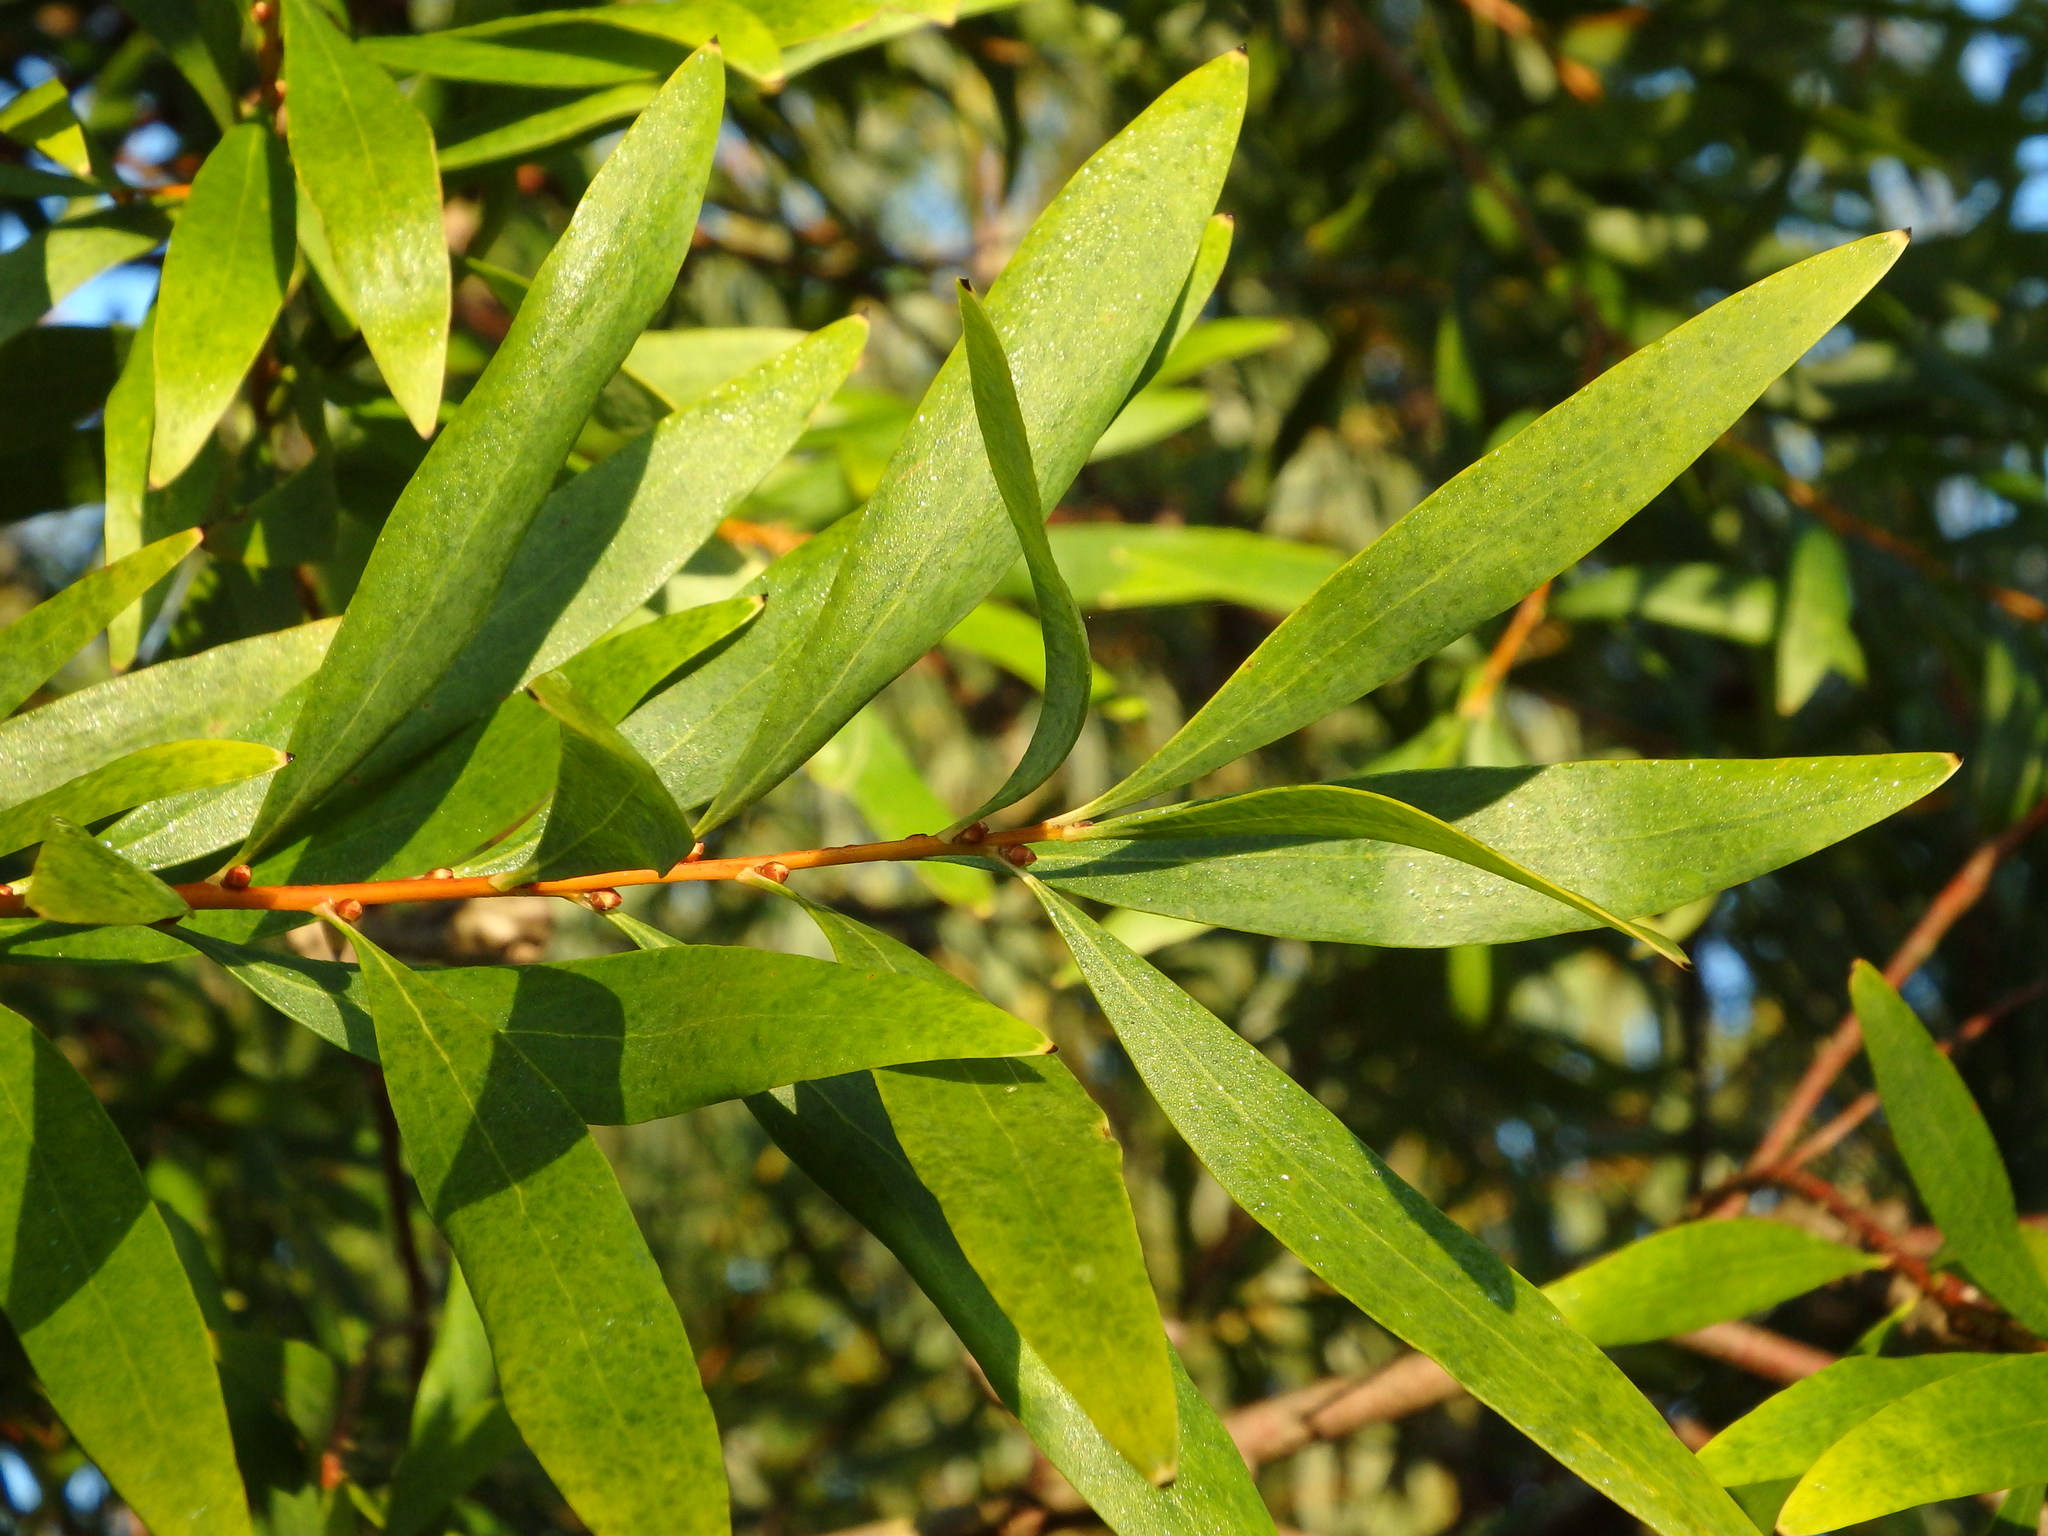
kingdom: Plantae
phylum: Tracheophyta
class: Magnoliopsida
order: Proteales
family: Proteaceae
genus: Hakea
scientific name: Hakea salicifolia
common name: Willow hakea
